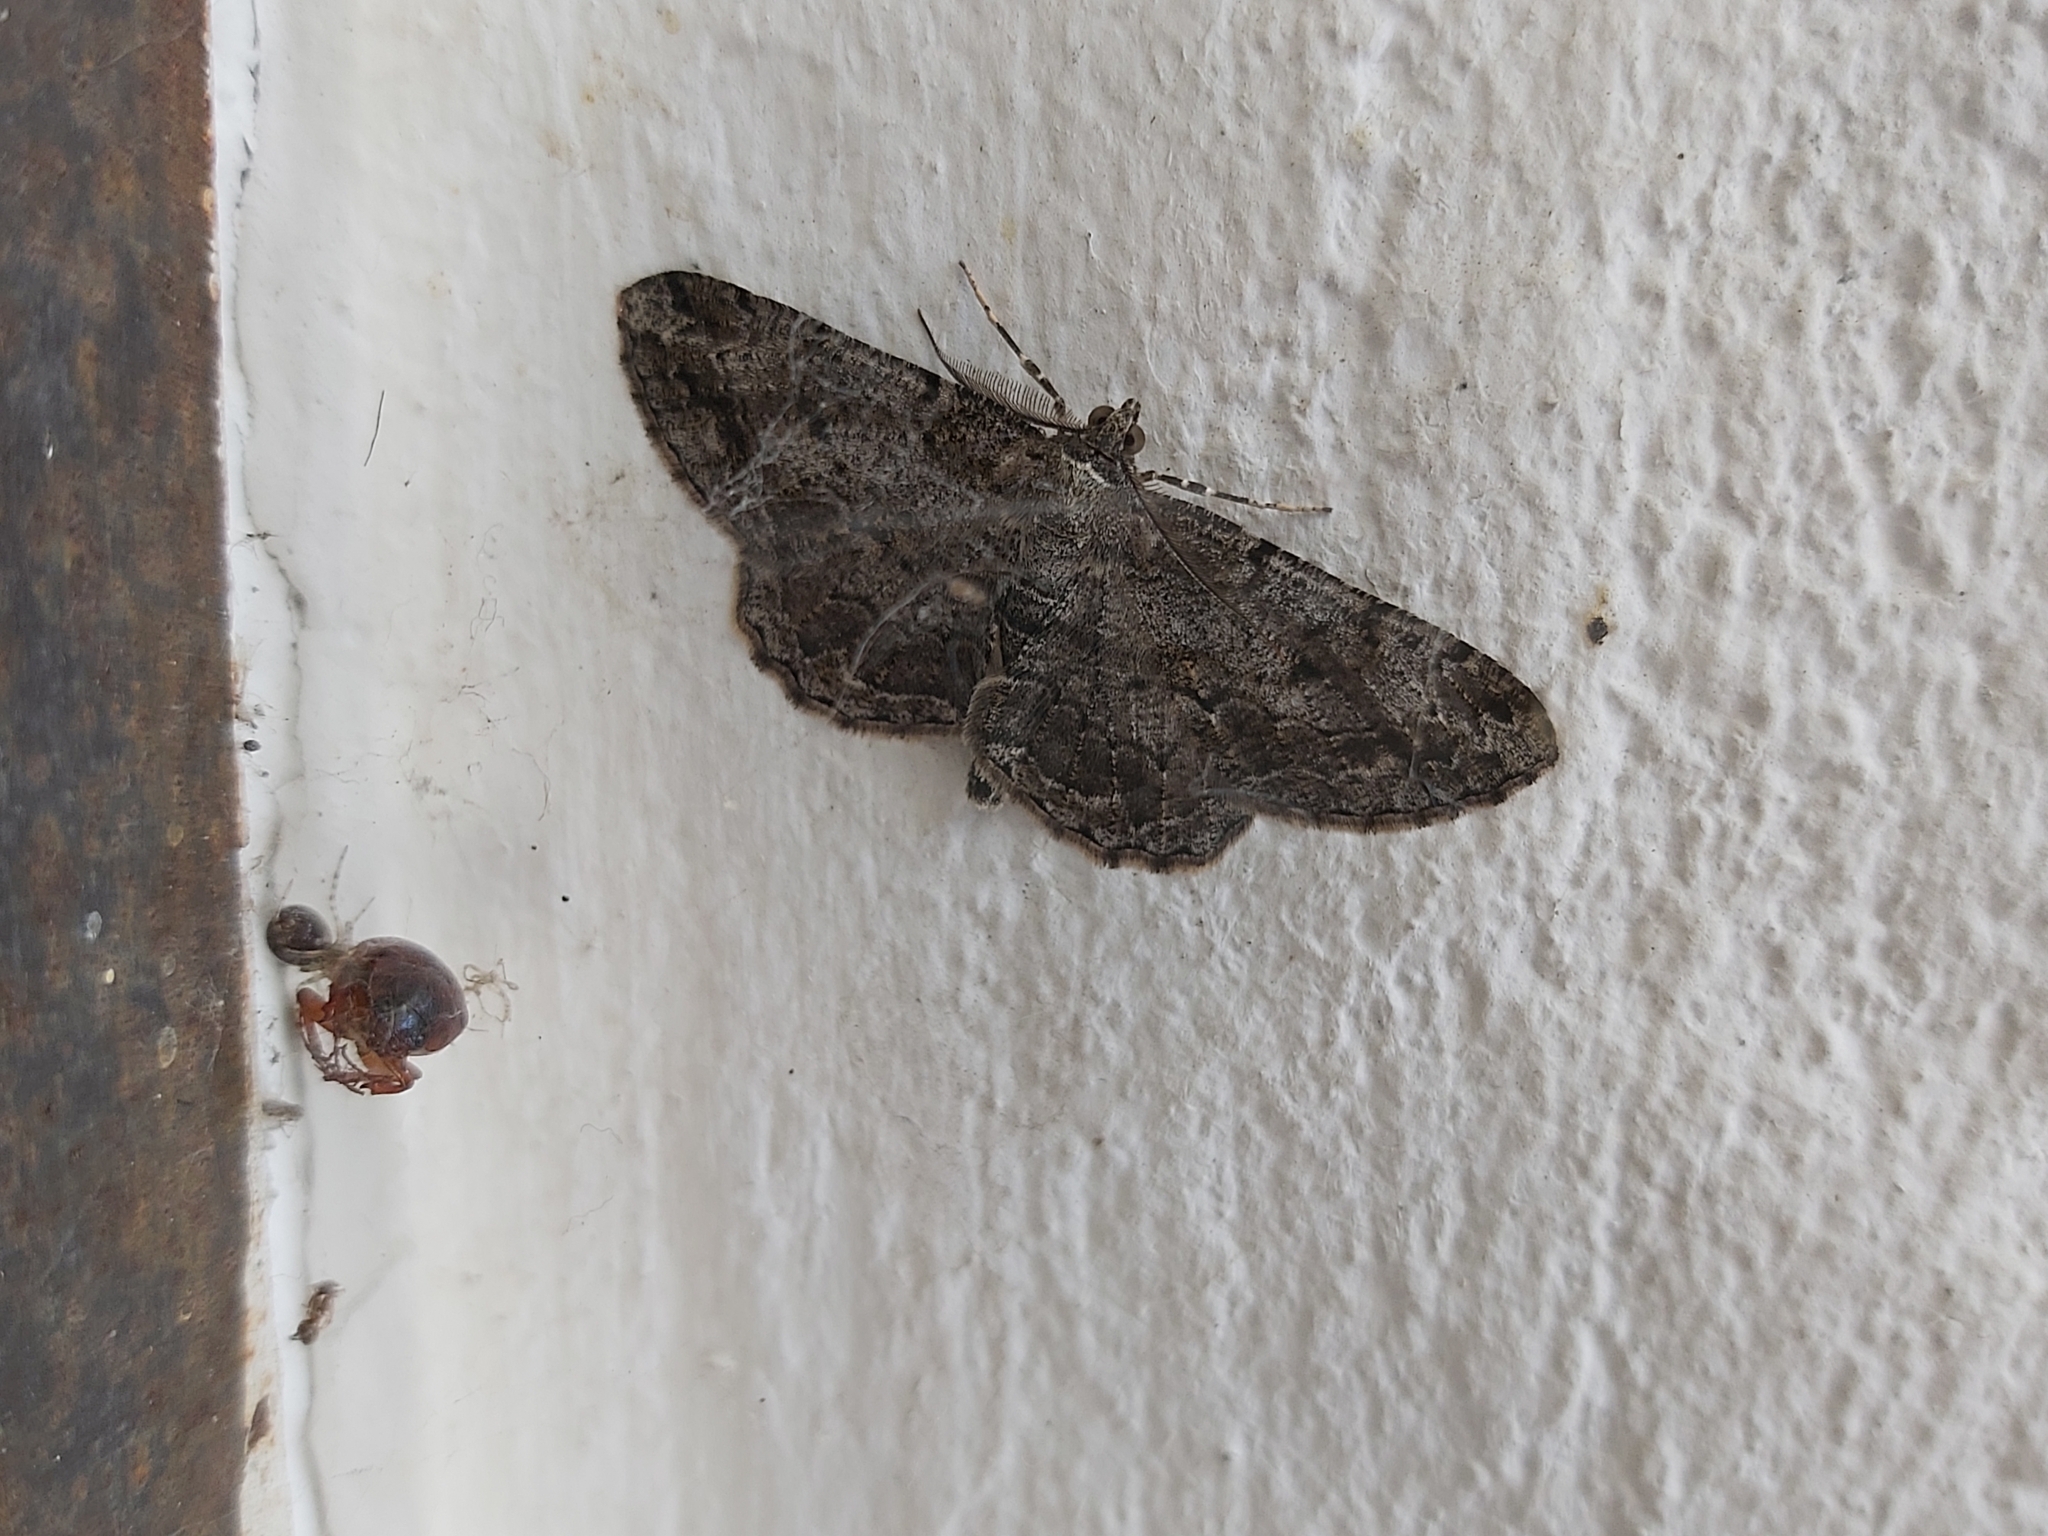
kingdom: Animalia
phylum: Arthropoda
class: Insecta
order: Lepidoptera
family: Geometridae
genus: Peribatodes
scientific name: Peribatodes rhomboidaria
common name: Willow beauty
